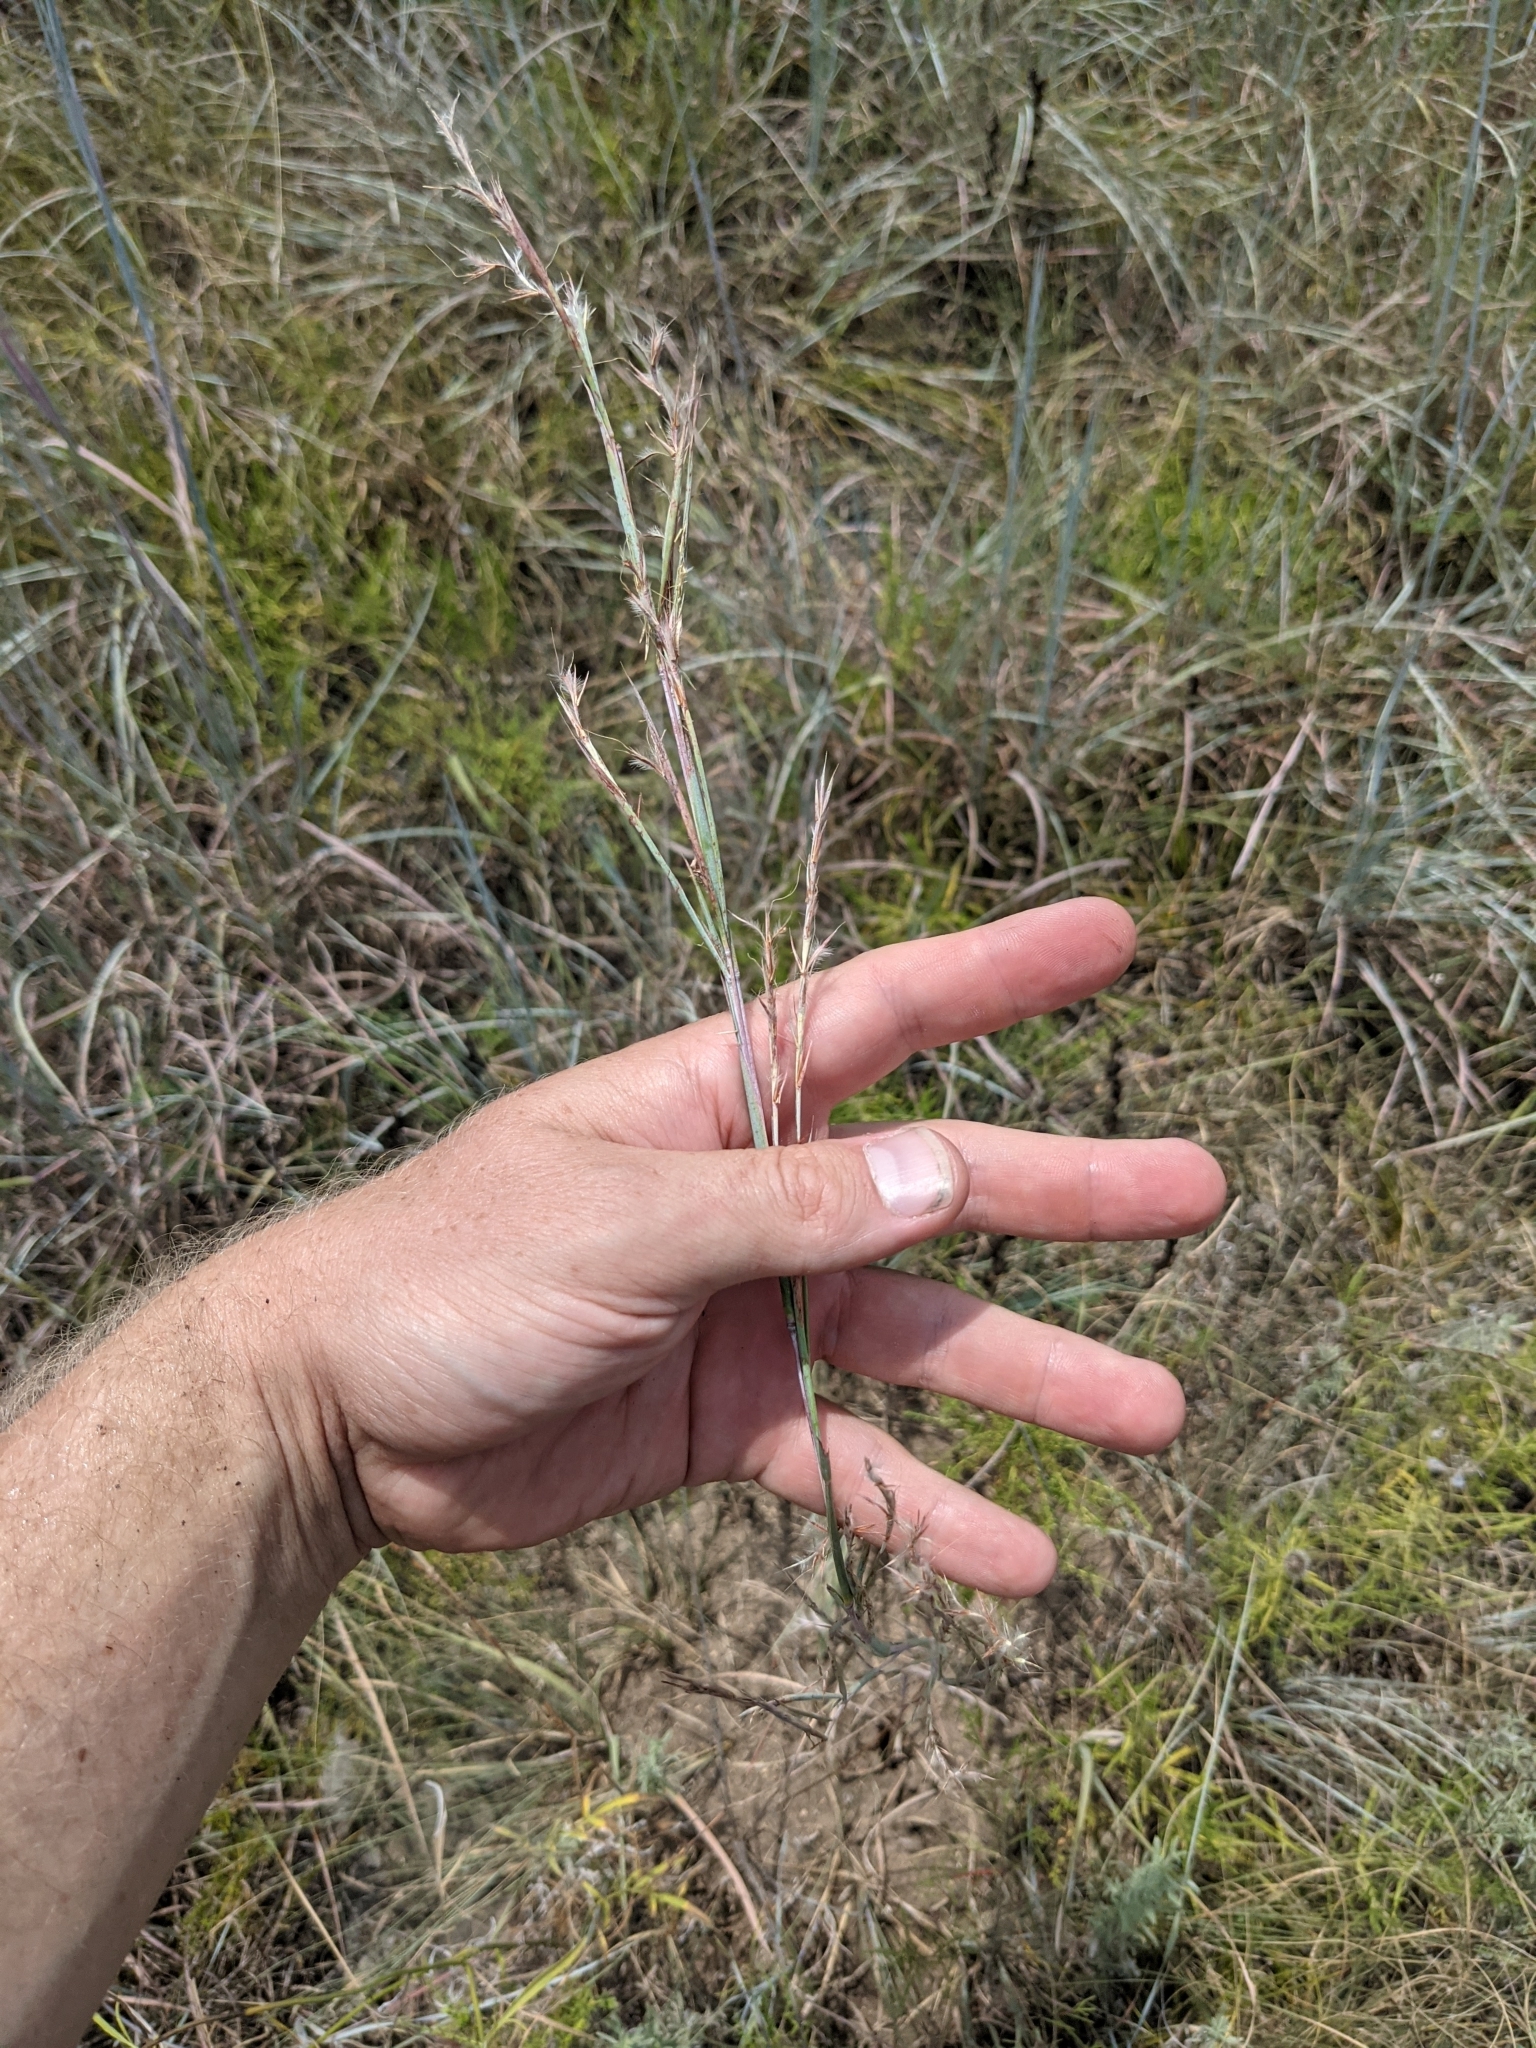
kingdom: Plantae
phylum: Tracheophyta
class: Liliopsida
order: Poales
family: Poaceae
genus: Schizachyrium
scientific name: Schizachyrium scoparium
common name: Little bluestem
